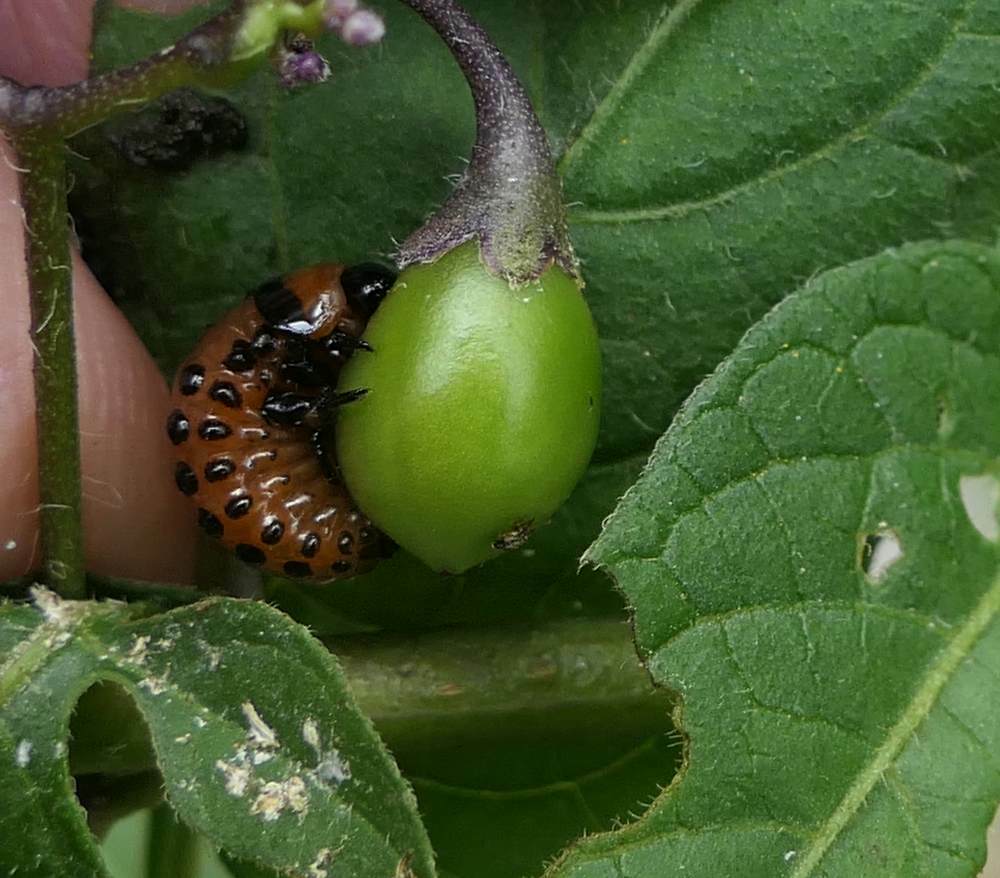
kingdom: Animalia
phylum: Arthropoda
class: Insecta
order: Coleoptera
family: Chrysomelidae
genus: Leptinotarsa
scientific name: Leptinotarsa decemlineata
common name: Colorado potato beetle
